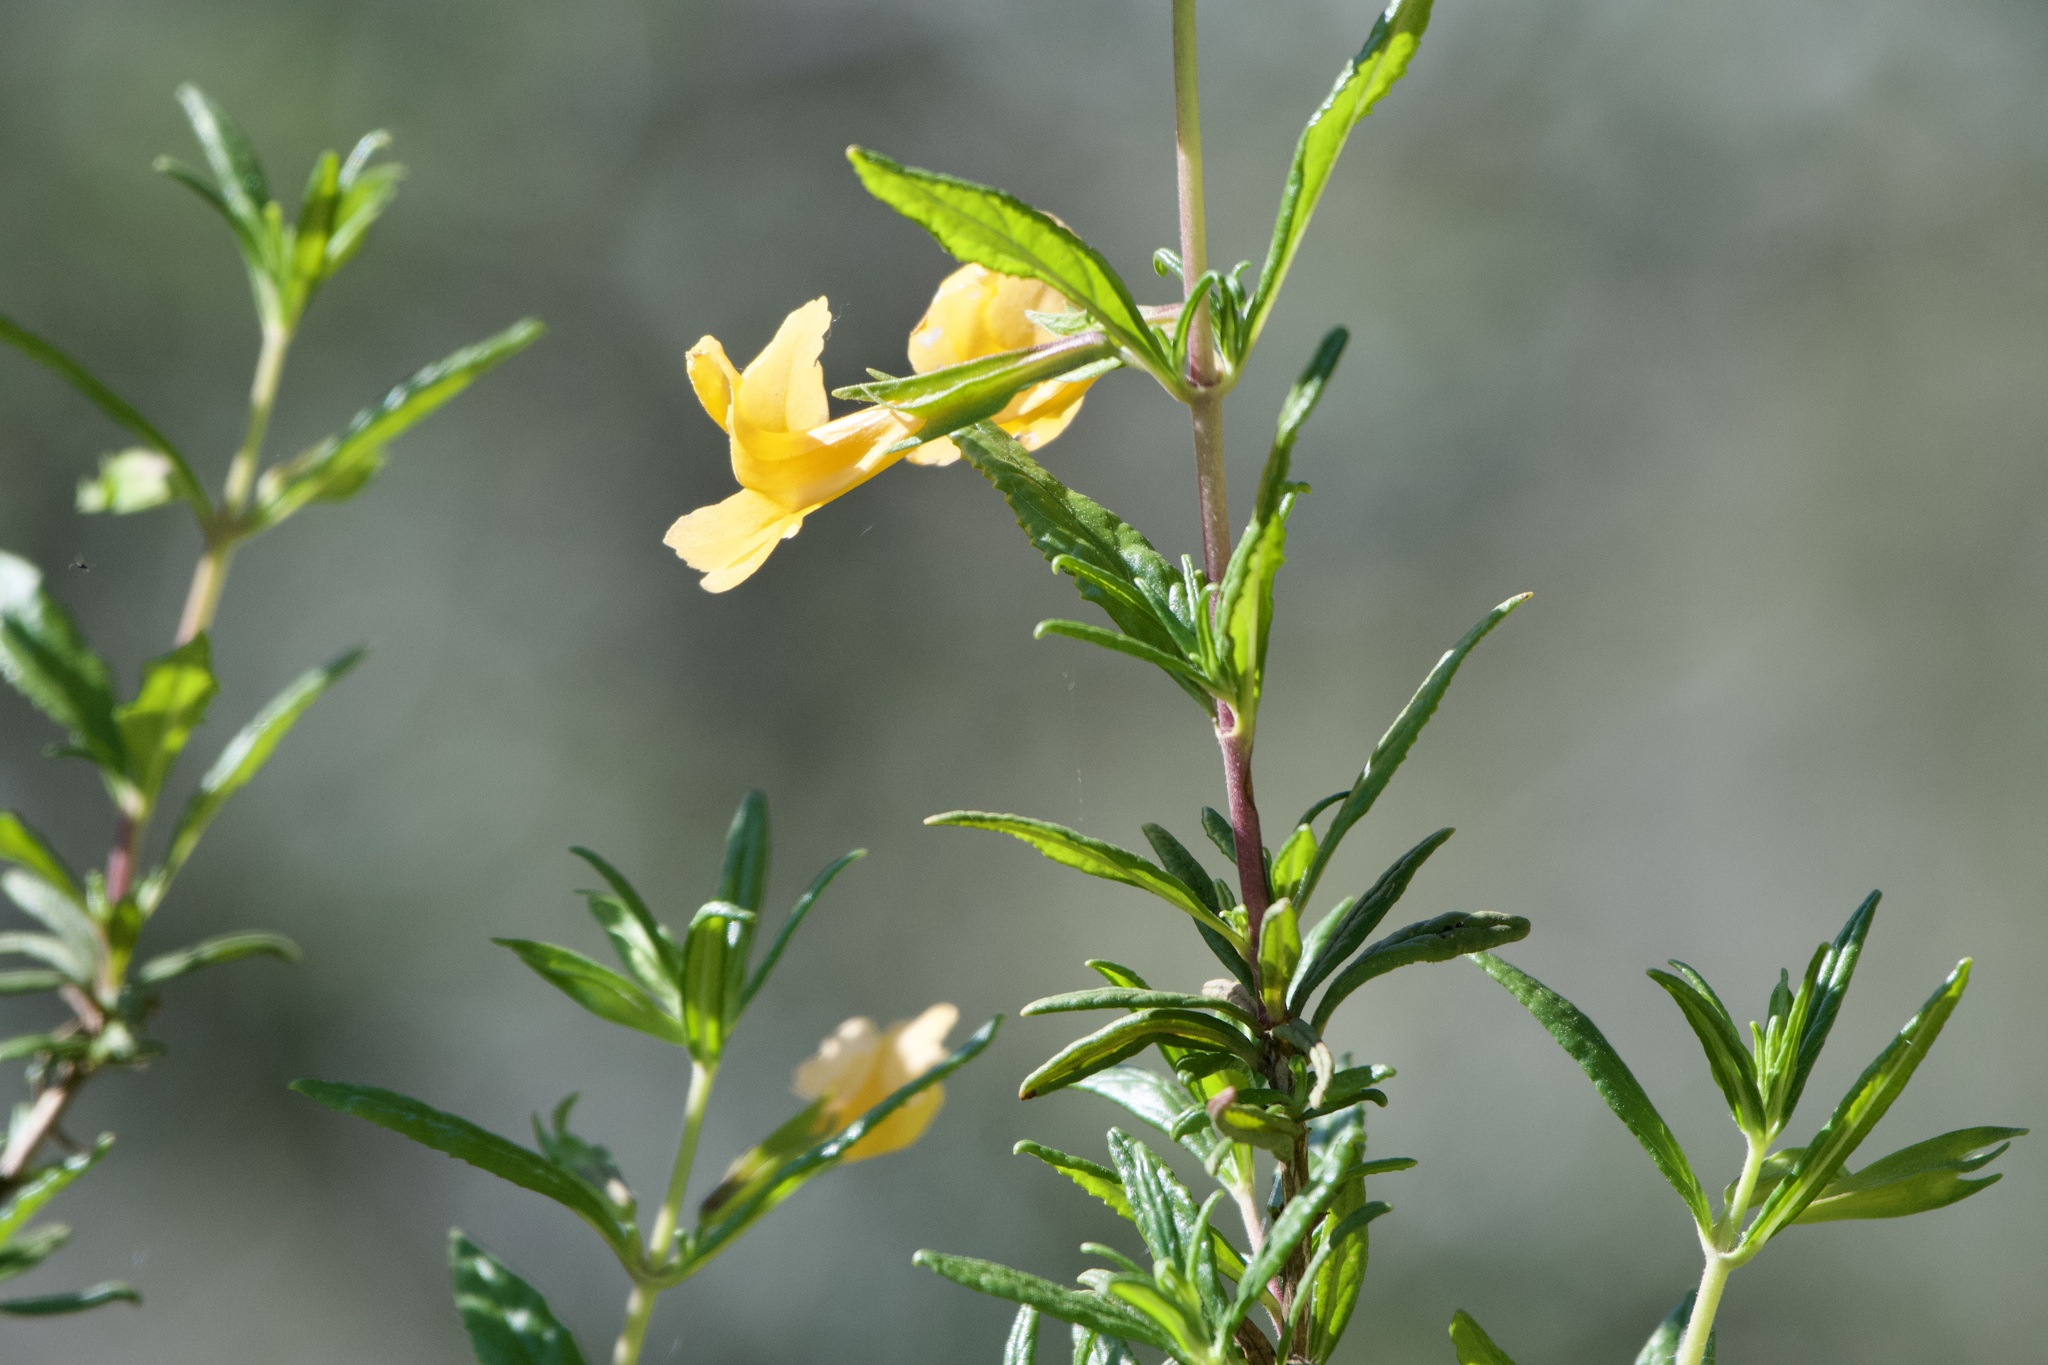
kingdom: Plantae
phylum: Tracheophyta
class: Magnoliopsida
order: Lamiales
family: Phrymaceae
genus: Diplacus
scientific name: Diplacus aurantiacus
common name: Bush monkey-flower
